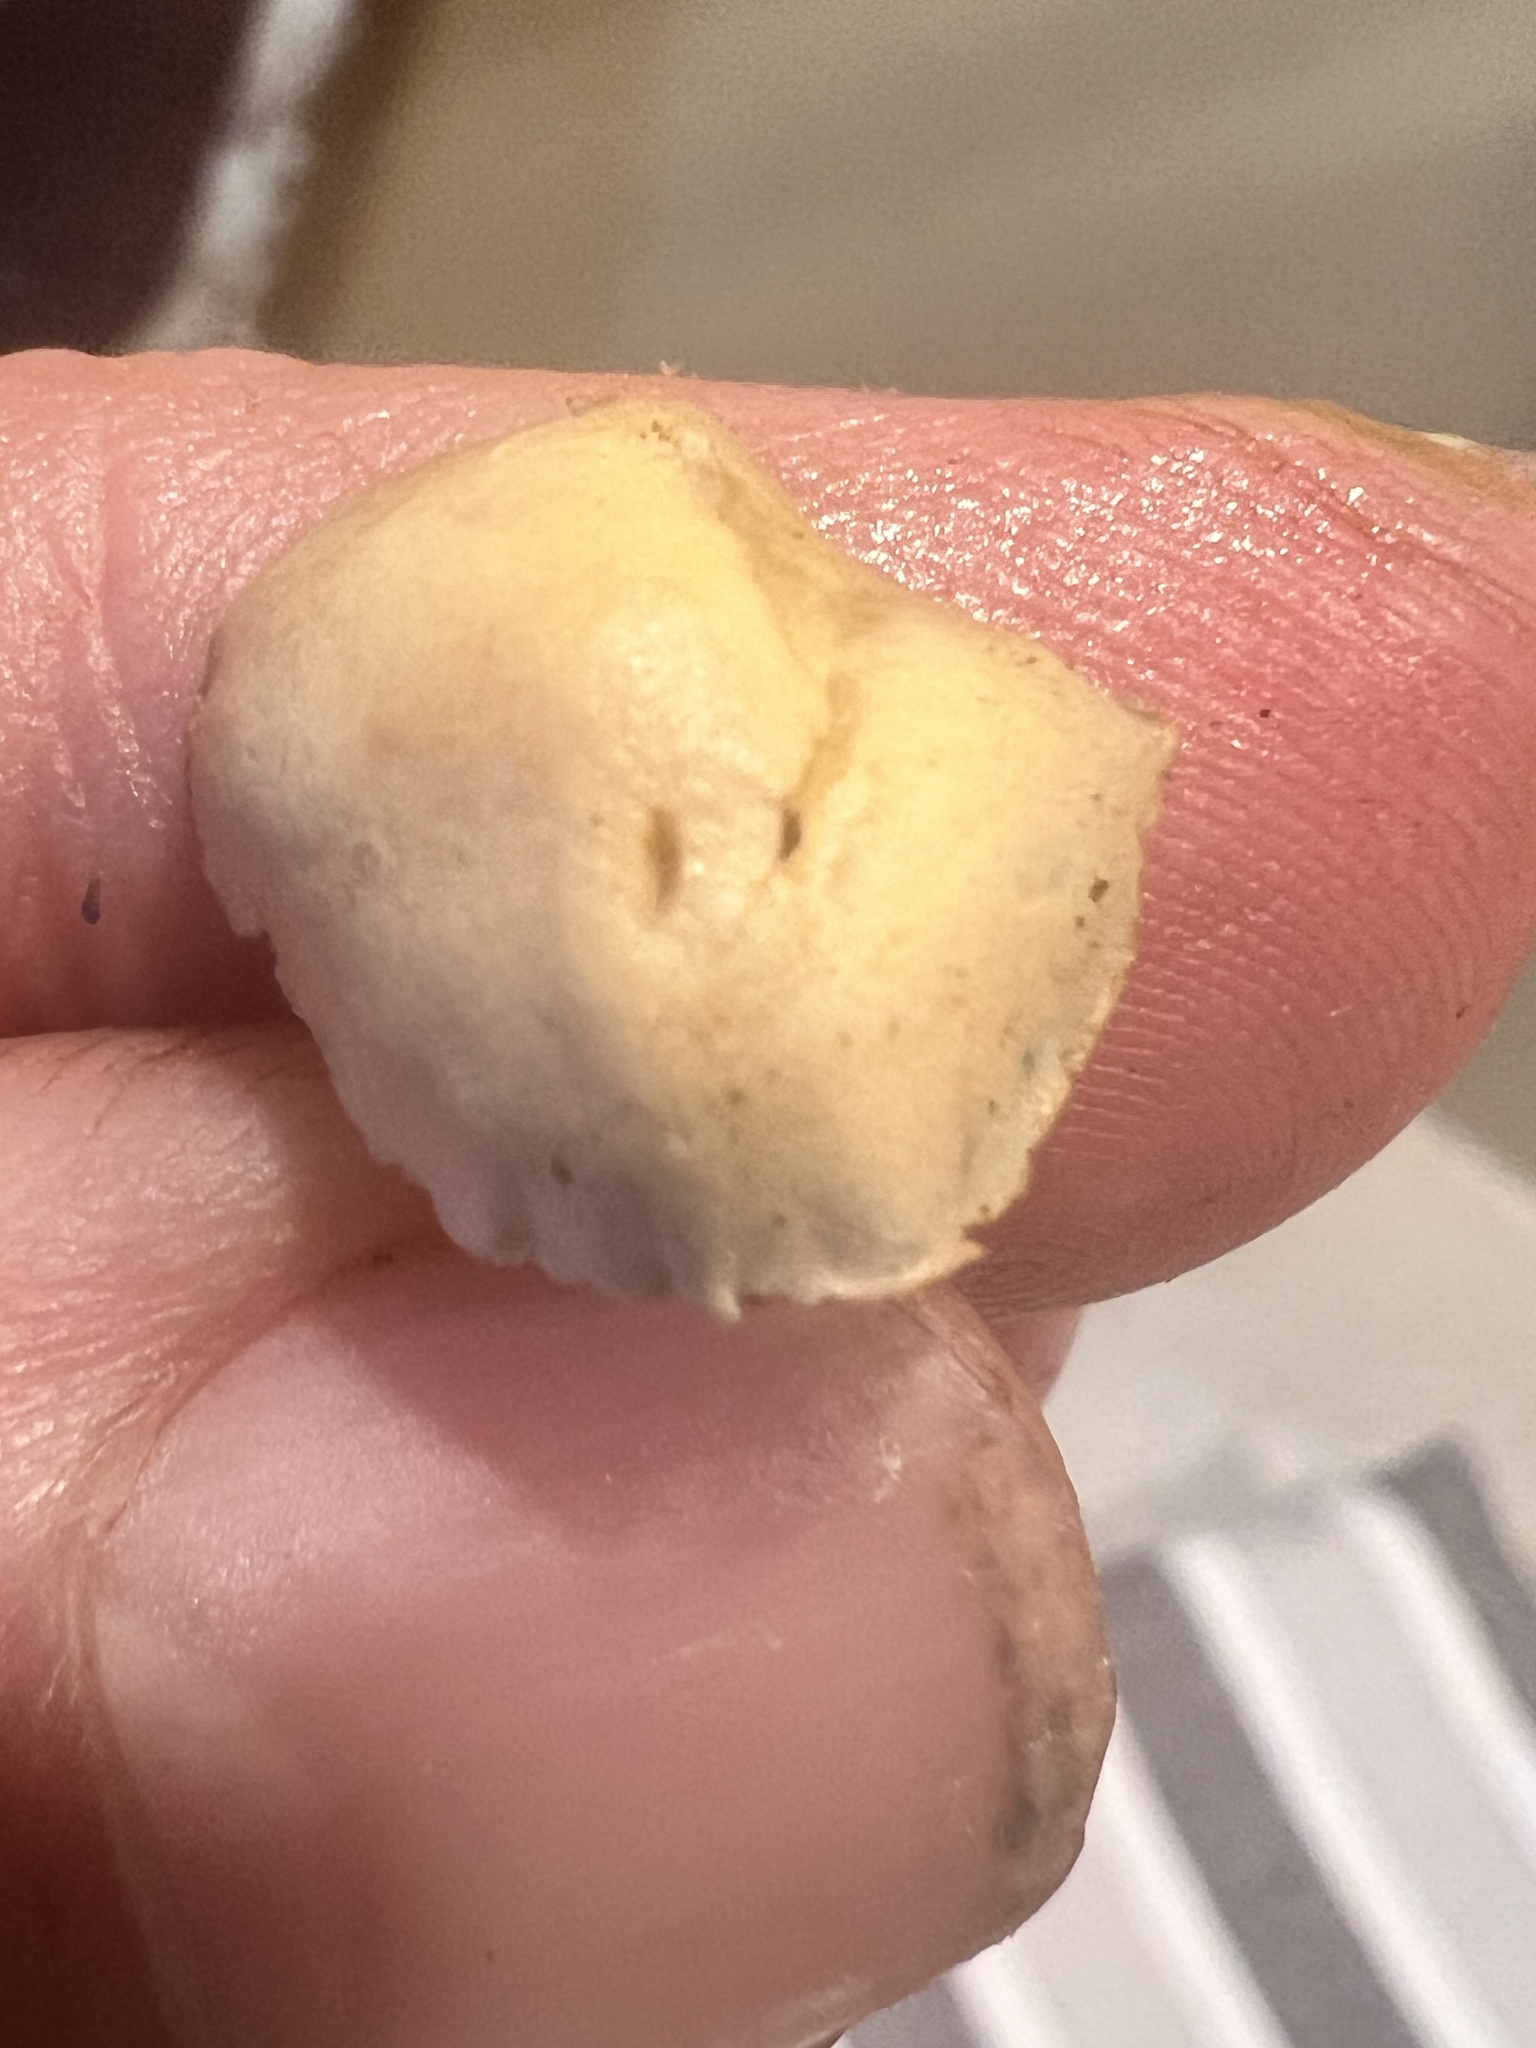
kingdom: Fungi
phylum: Basidiomycota
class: Agaricomycetes
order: Agaricales
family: Strophariaceae
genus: Agrocybe
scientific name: Agrocybe pediades
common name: Common fieldcap
